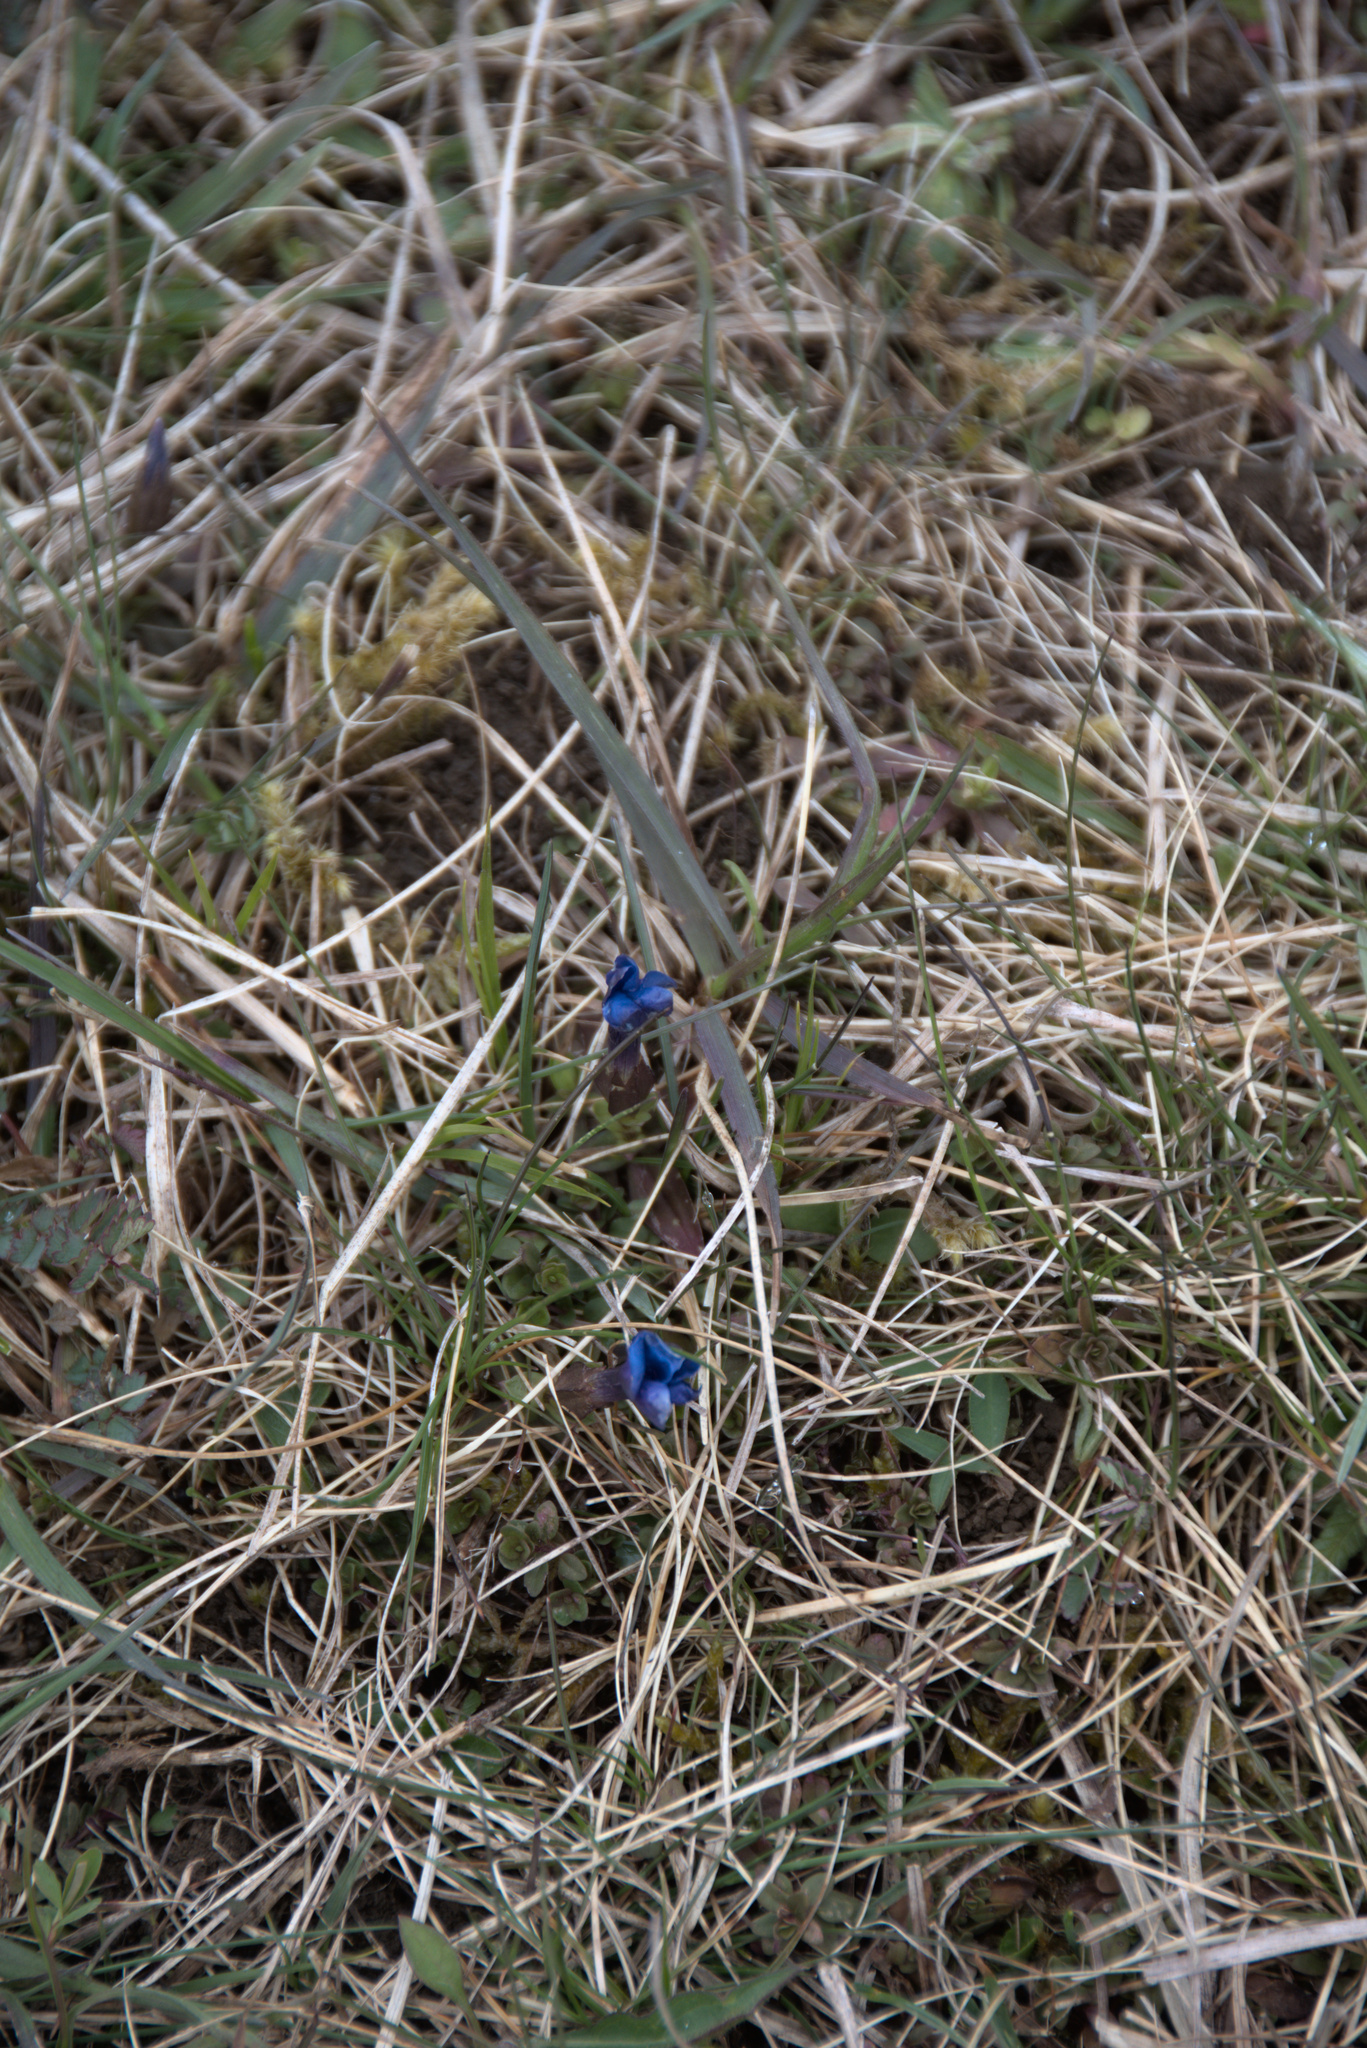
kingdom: Plantae
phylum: Tracheophyta
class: Magnoliopsida
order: Gentianales
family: Gentianaceae
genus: Gentiana
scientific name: Gentiana verna
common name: Spring gentian
